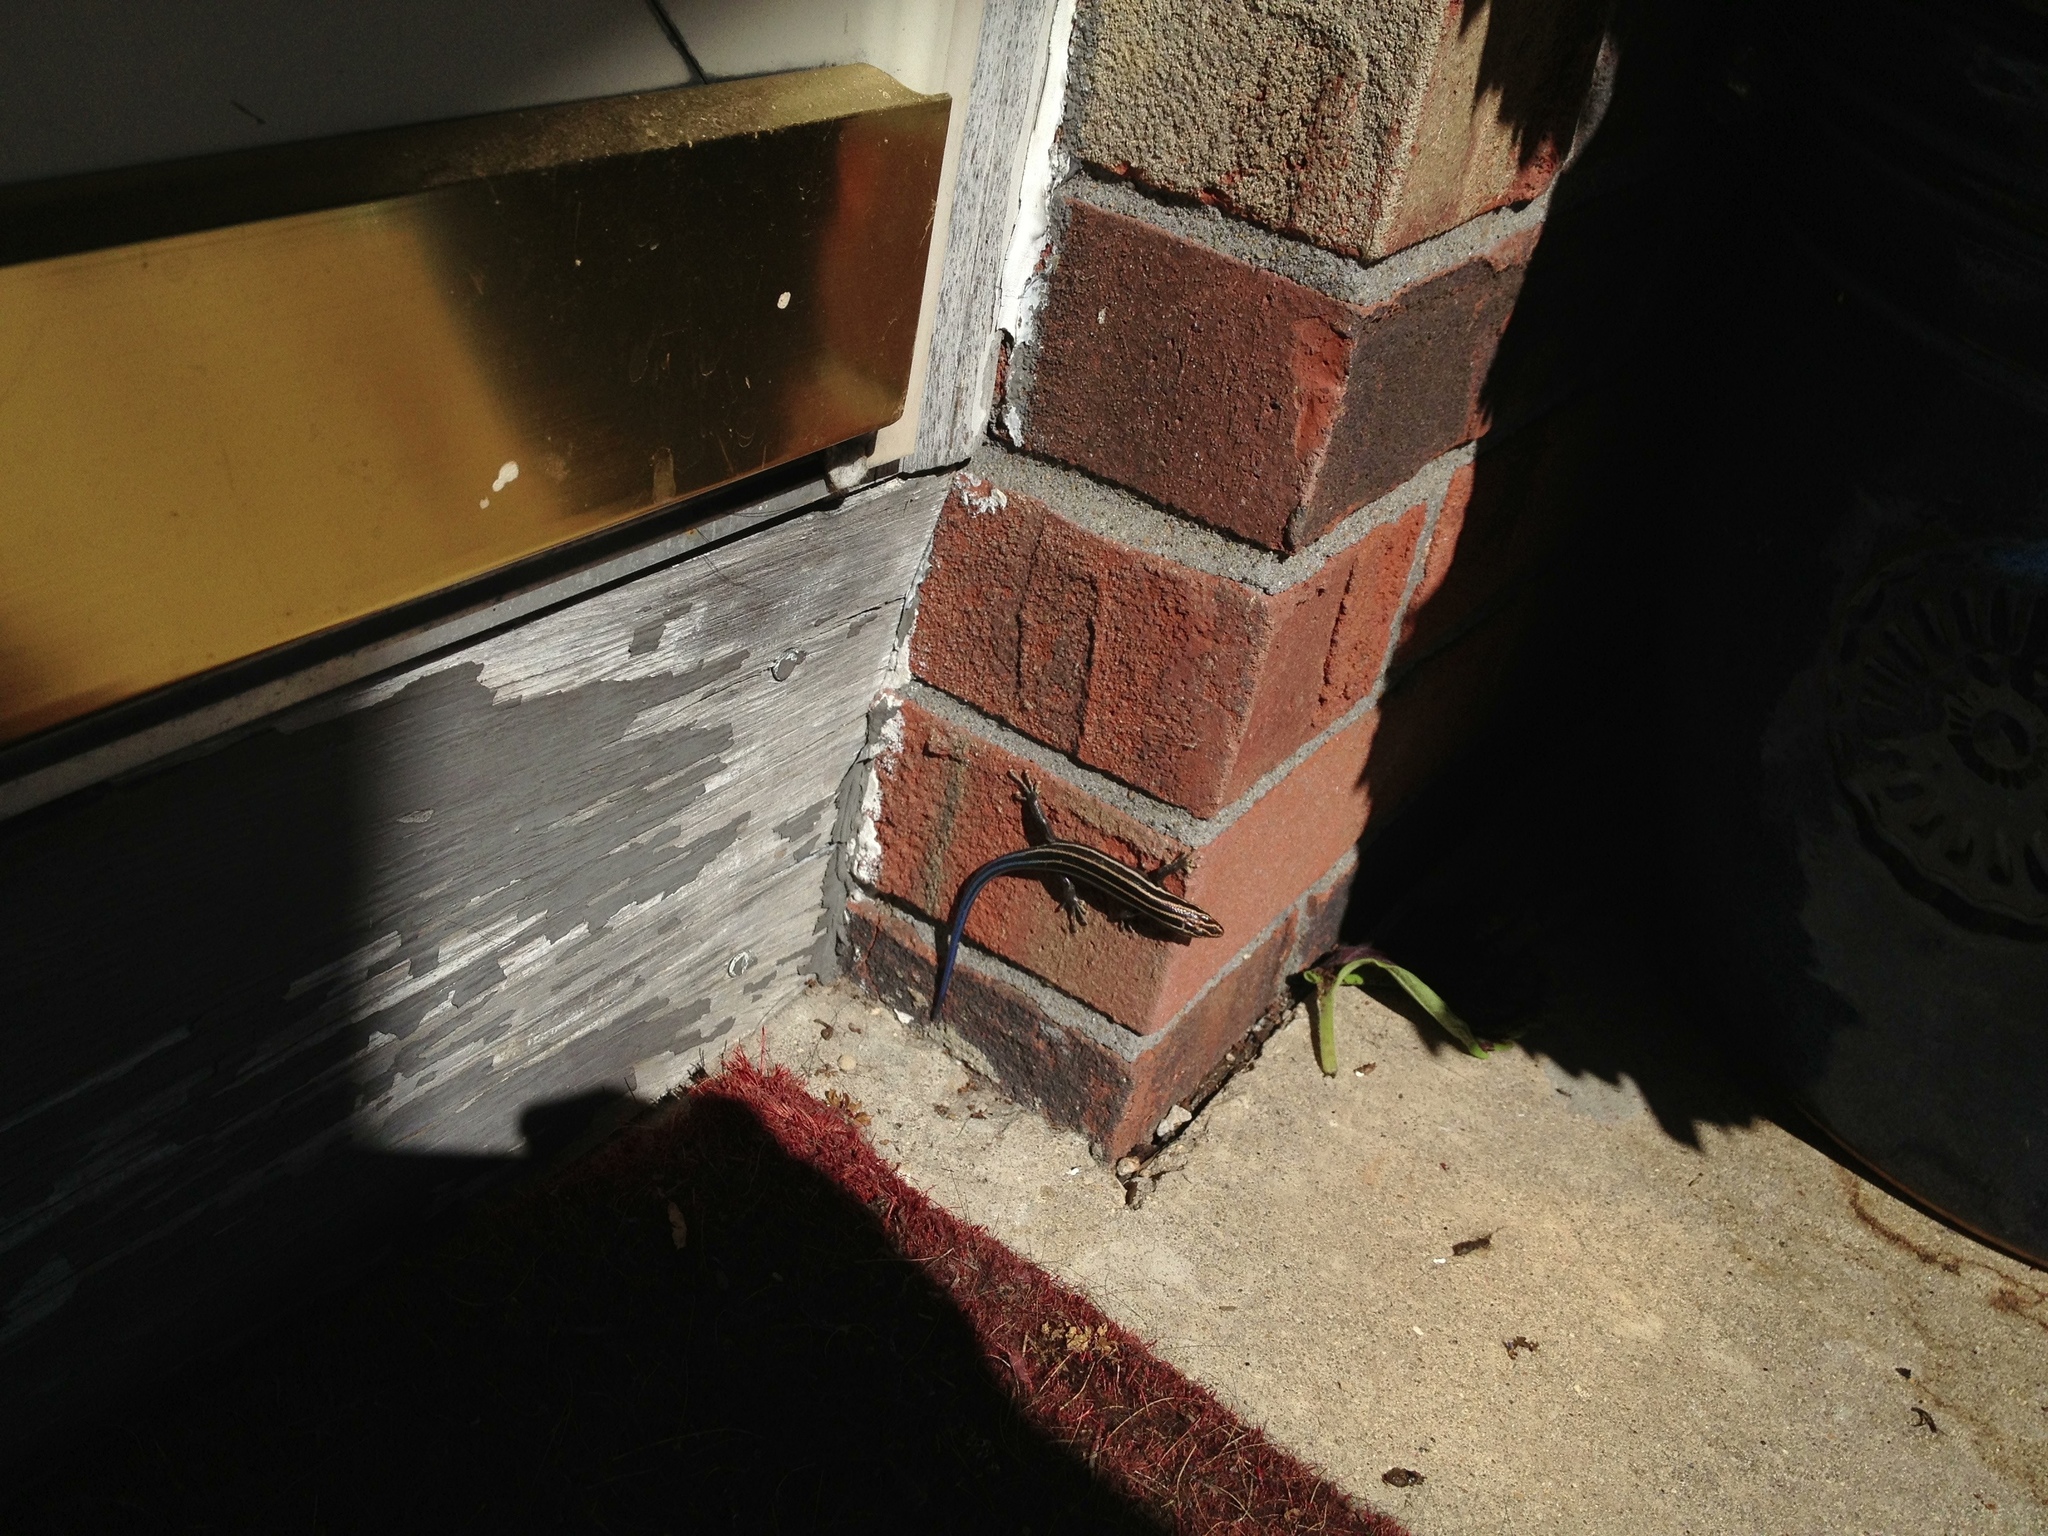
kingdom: Animalia
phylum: Chordata
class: Squamata
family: Scincidae
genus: Plestiodon
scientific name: Plestiodon fasciatus
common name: Five-lined skink
